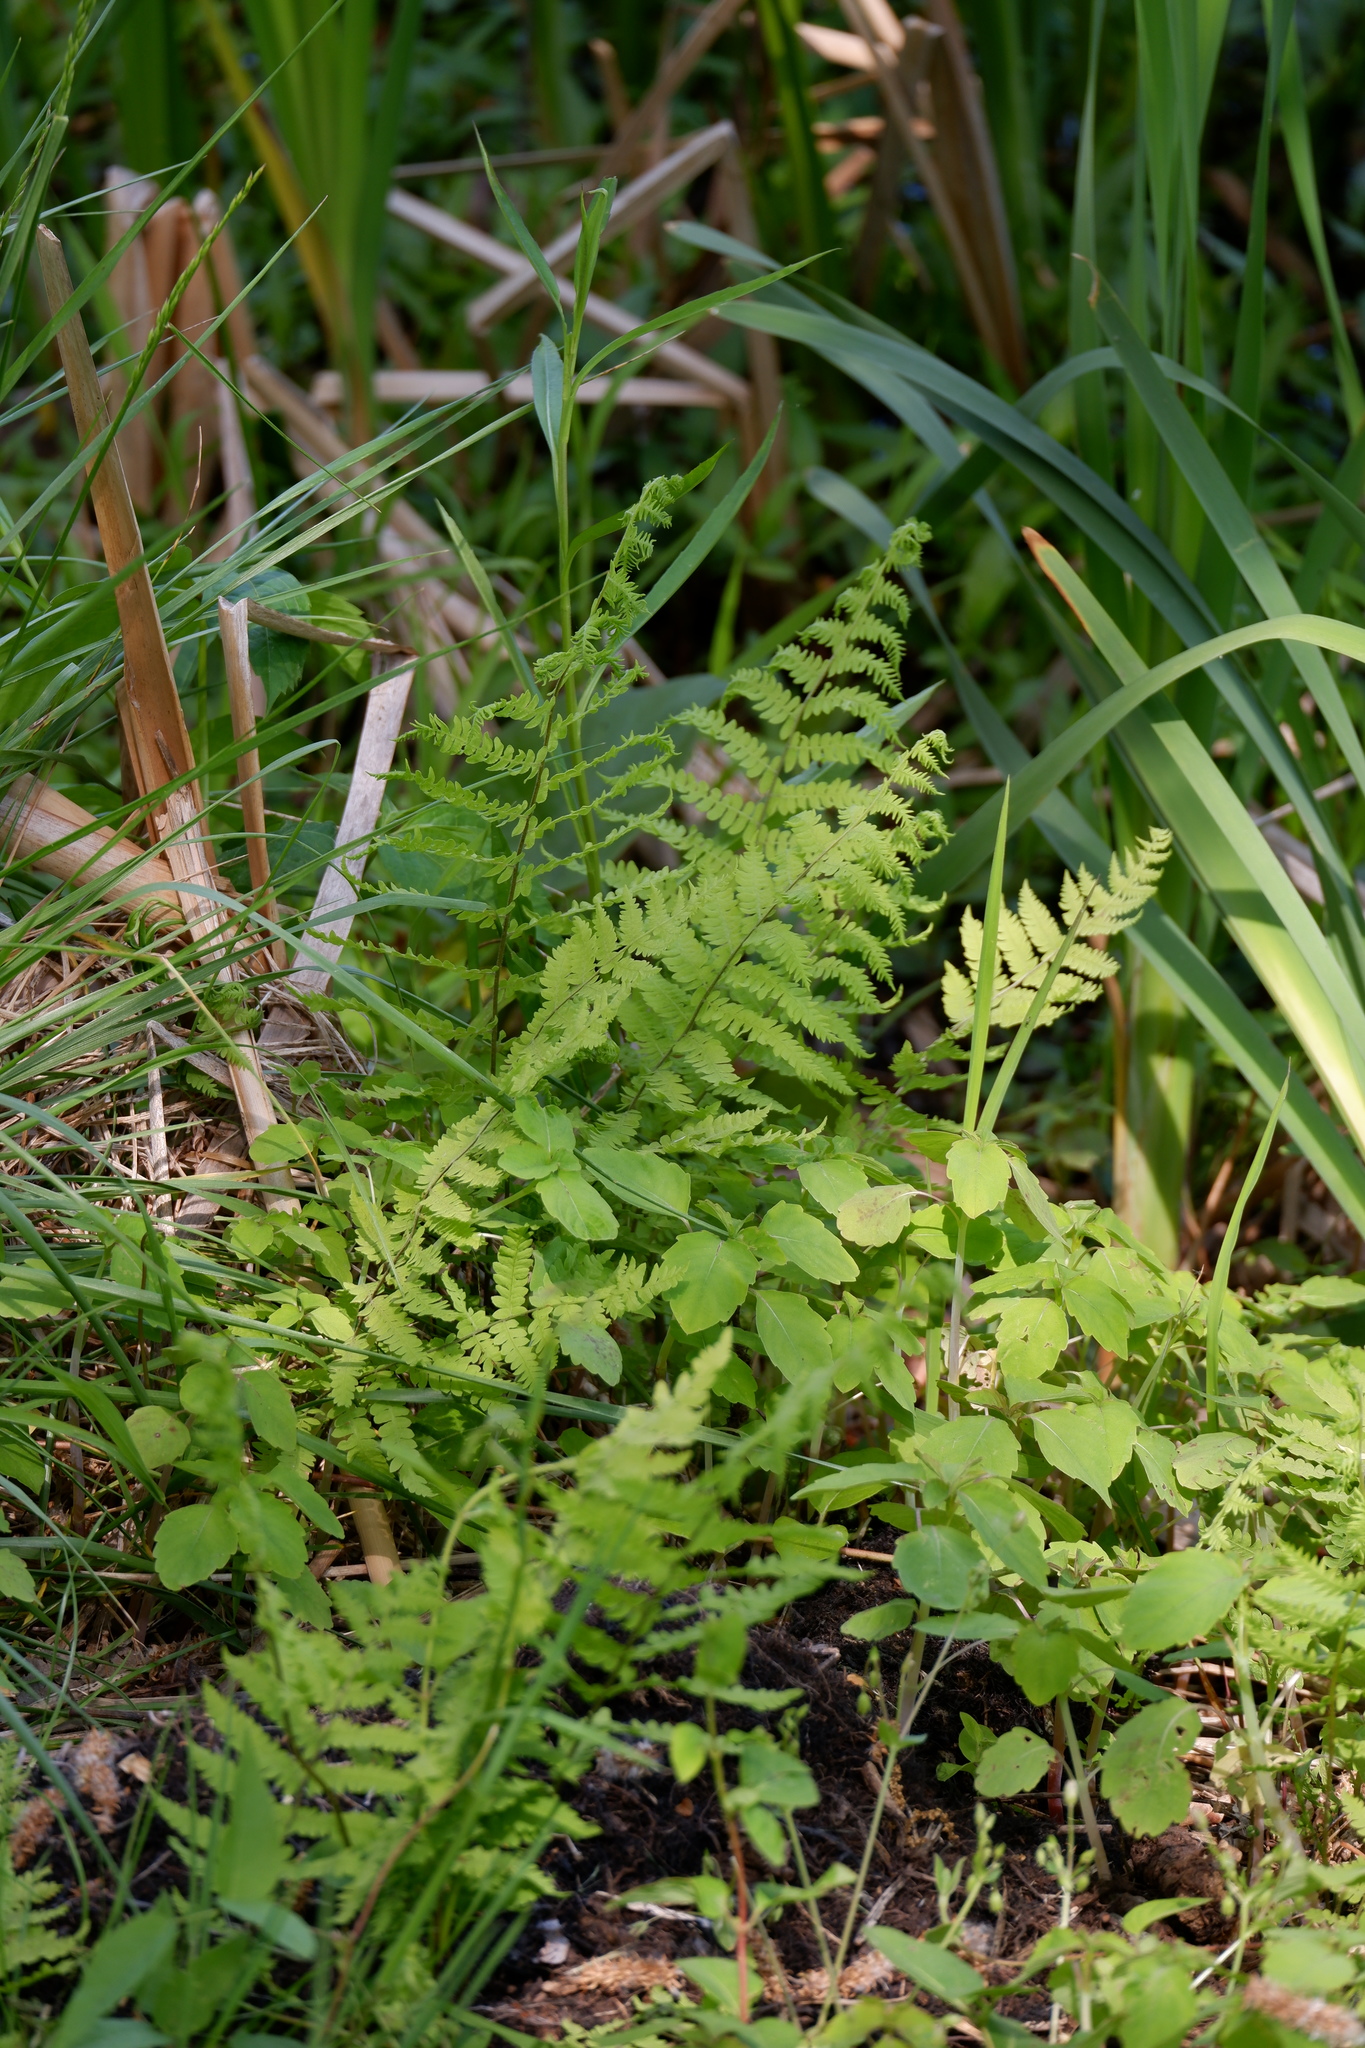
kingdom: Plantae
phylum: Tracheophyta
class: Polypodiopsida
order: Polypodiales
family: Thelypteridaceae
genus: Thelypteris
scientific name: Thelypteris palustris
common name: Marsh fern
